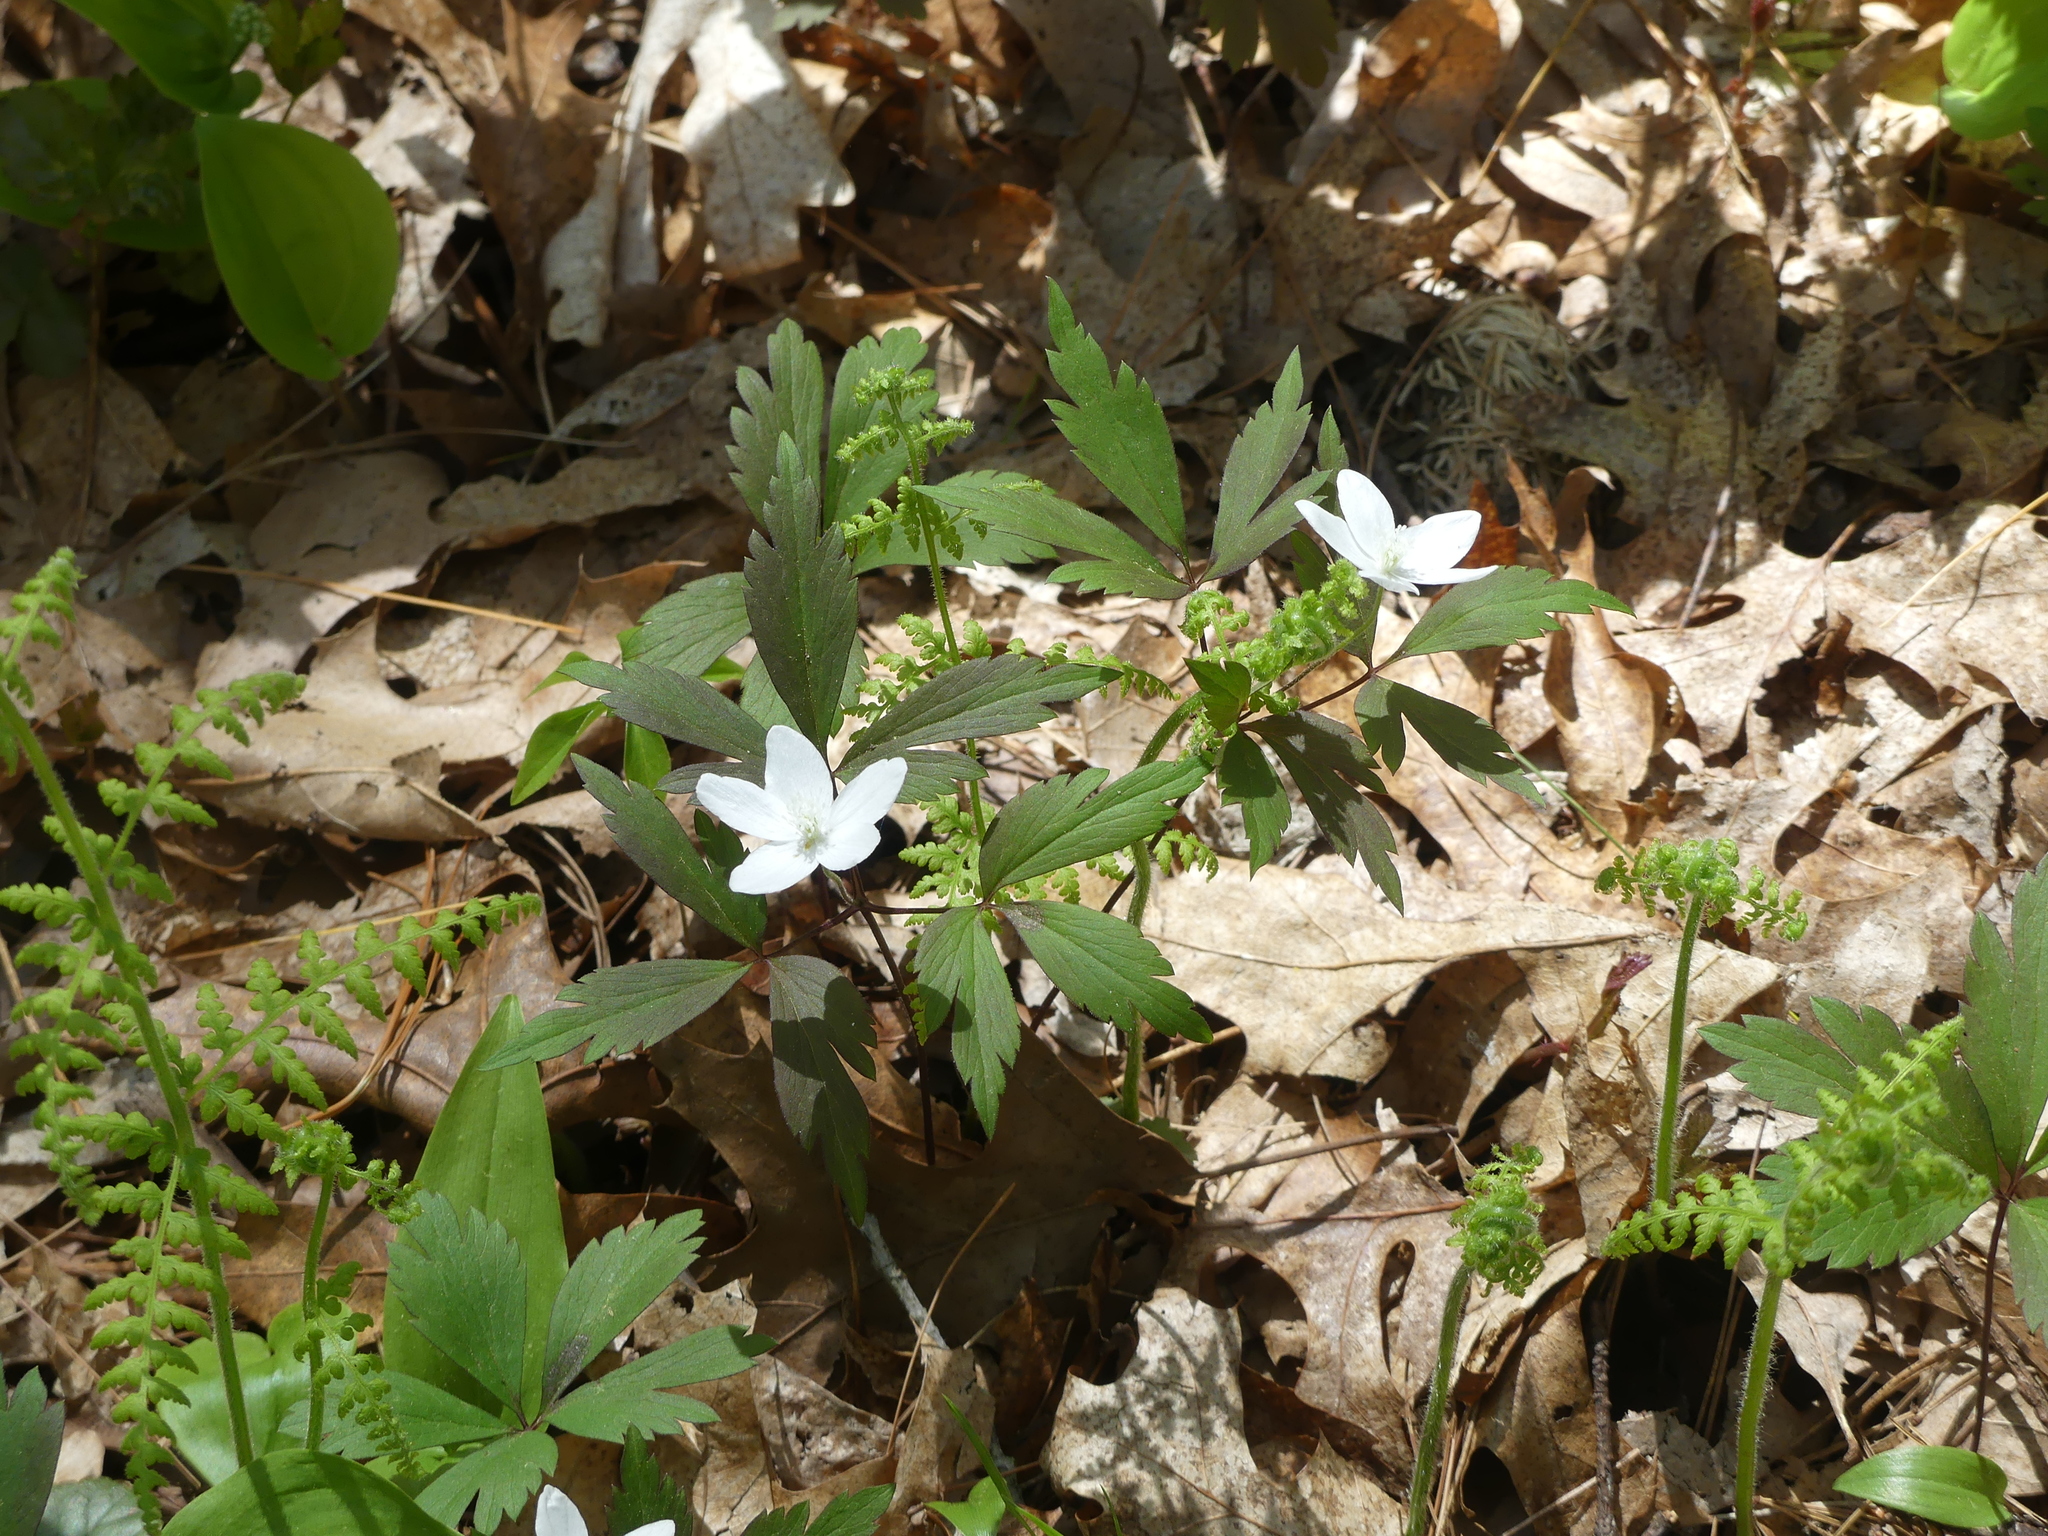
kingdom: Plantae
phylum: Tracheophyta
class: Magnoliopsida
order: Ranunculales
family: Ranunculaceae
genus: Anemone
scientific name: Anemone quinquefolia
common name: Wood anemone
